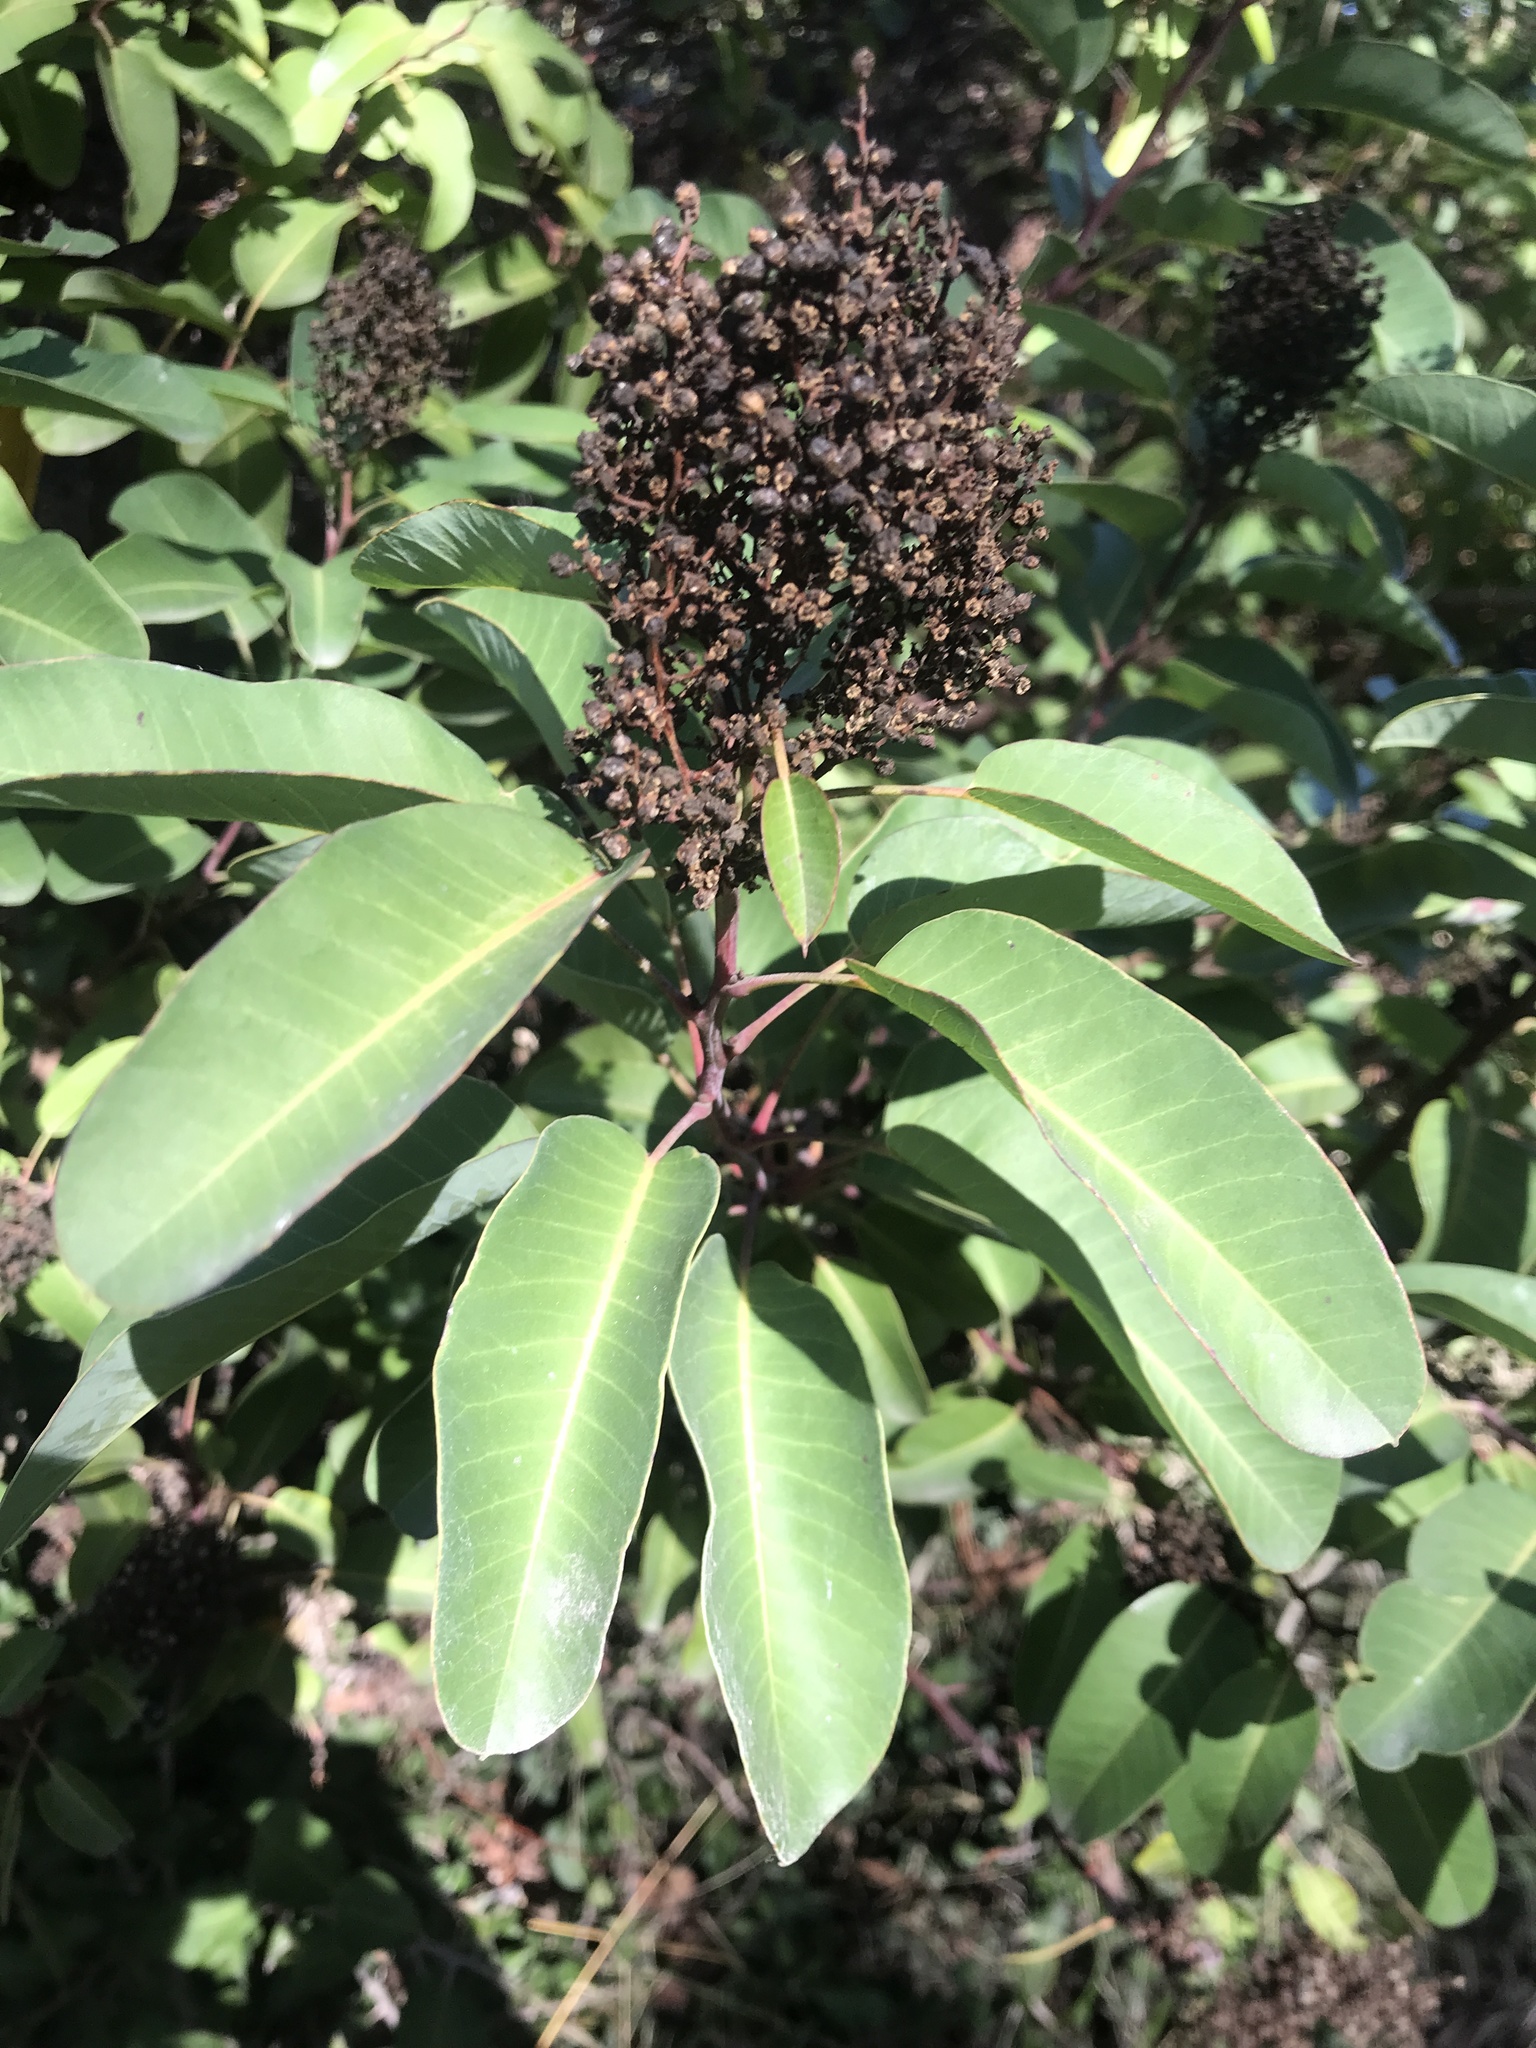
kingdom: Plantae
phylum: Tracheophyta
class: Magnoliopsida
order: Sapindales
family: Anacardiaceae
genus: Malosma
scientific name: Malosma laurina
